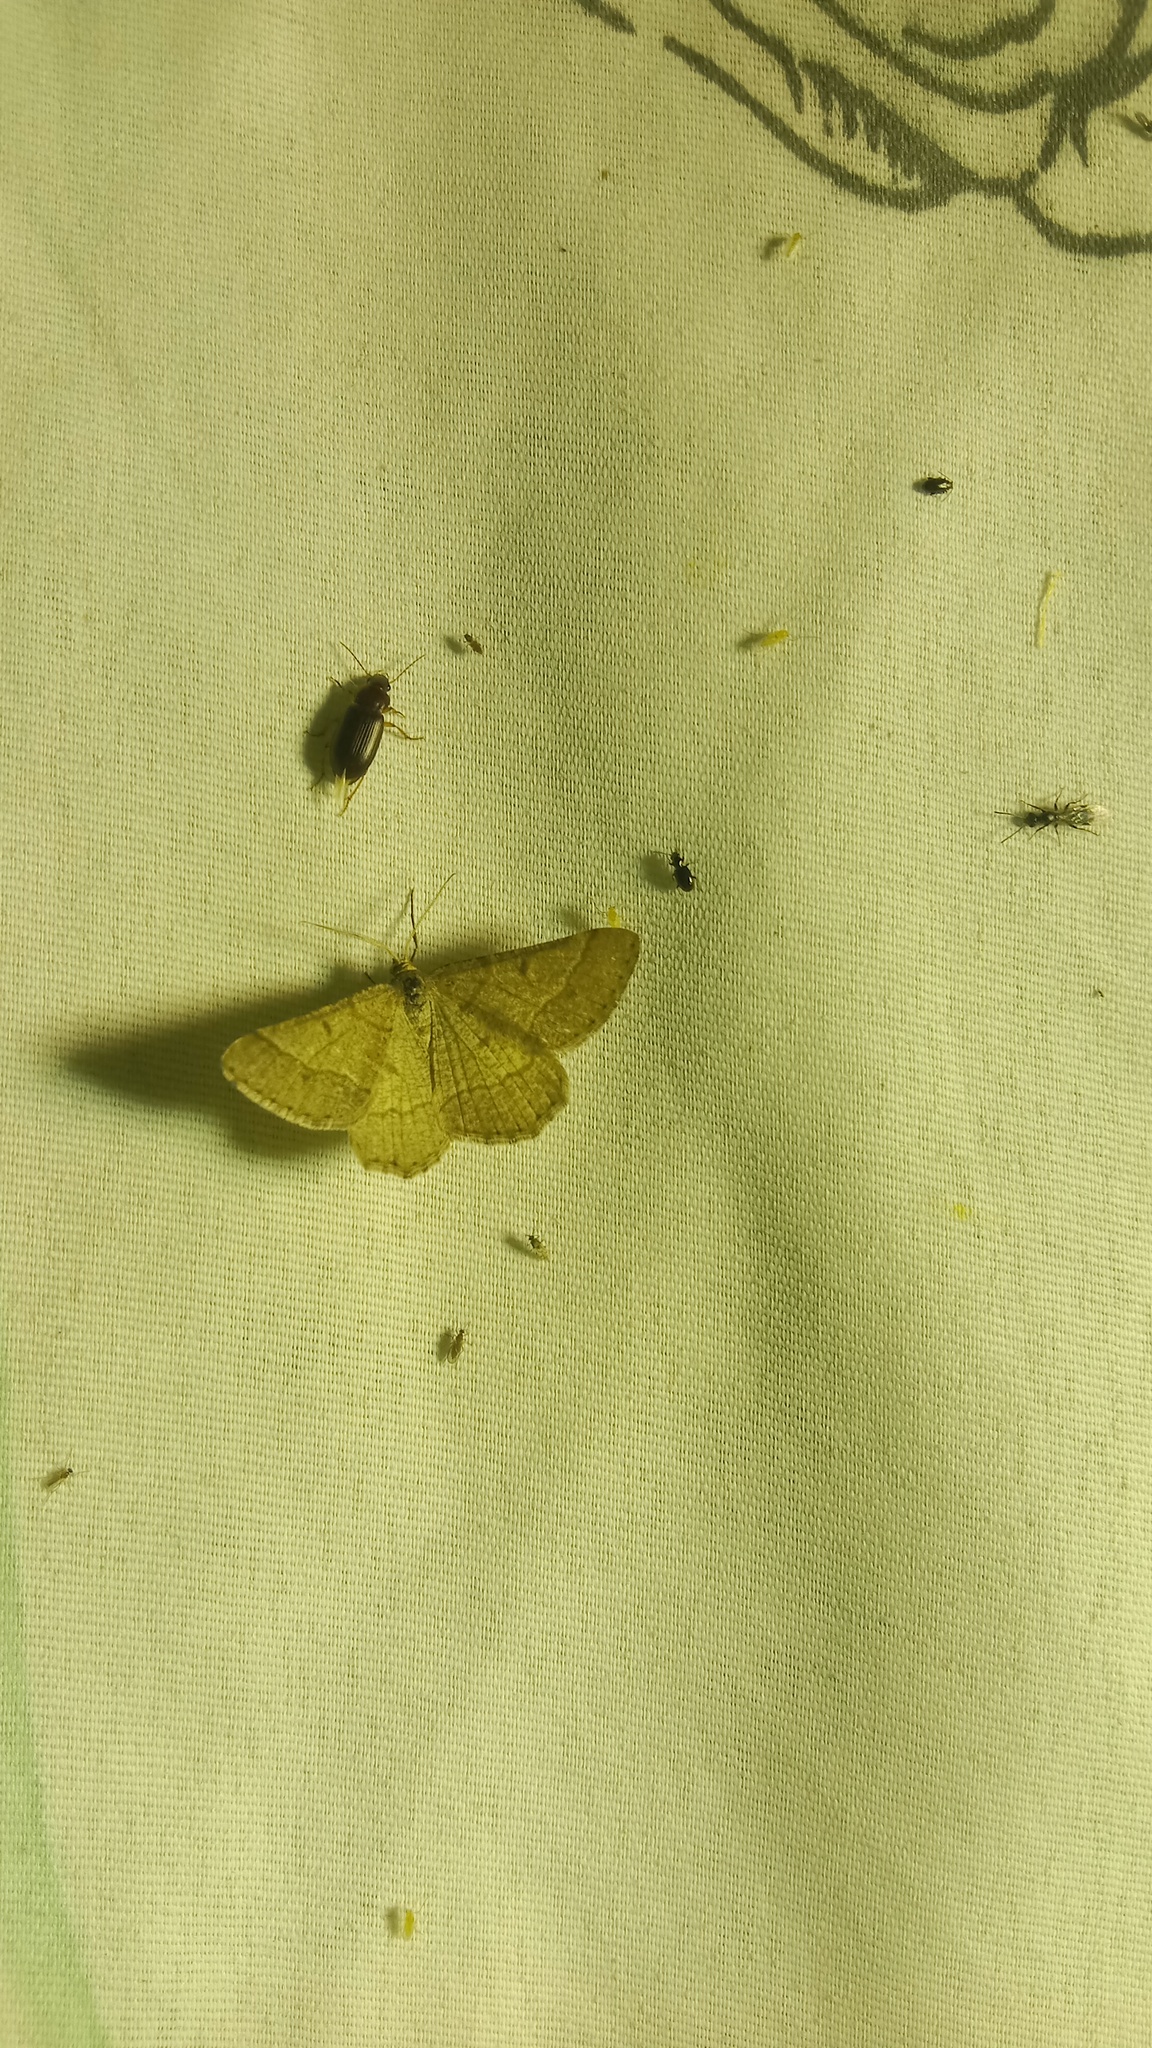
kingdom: Animalia
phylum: Arthropoda
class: Insecta
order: Lepidoptera
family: Geometridae
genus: Tephrina
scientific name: Tephrina murinaria
